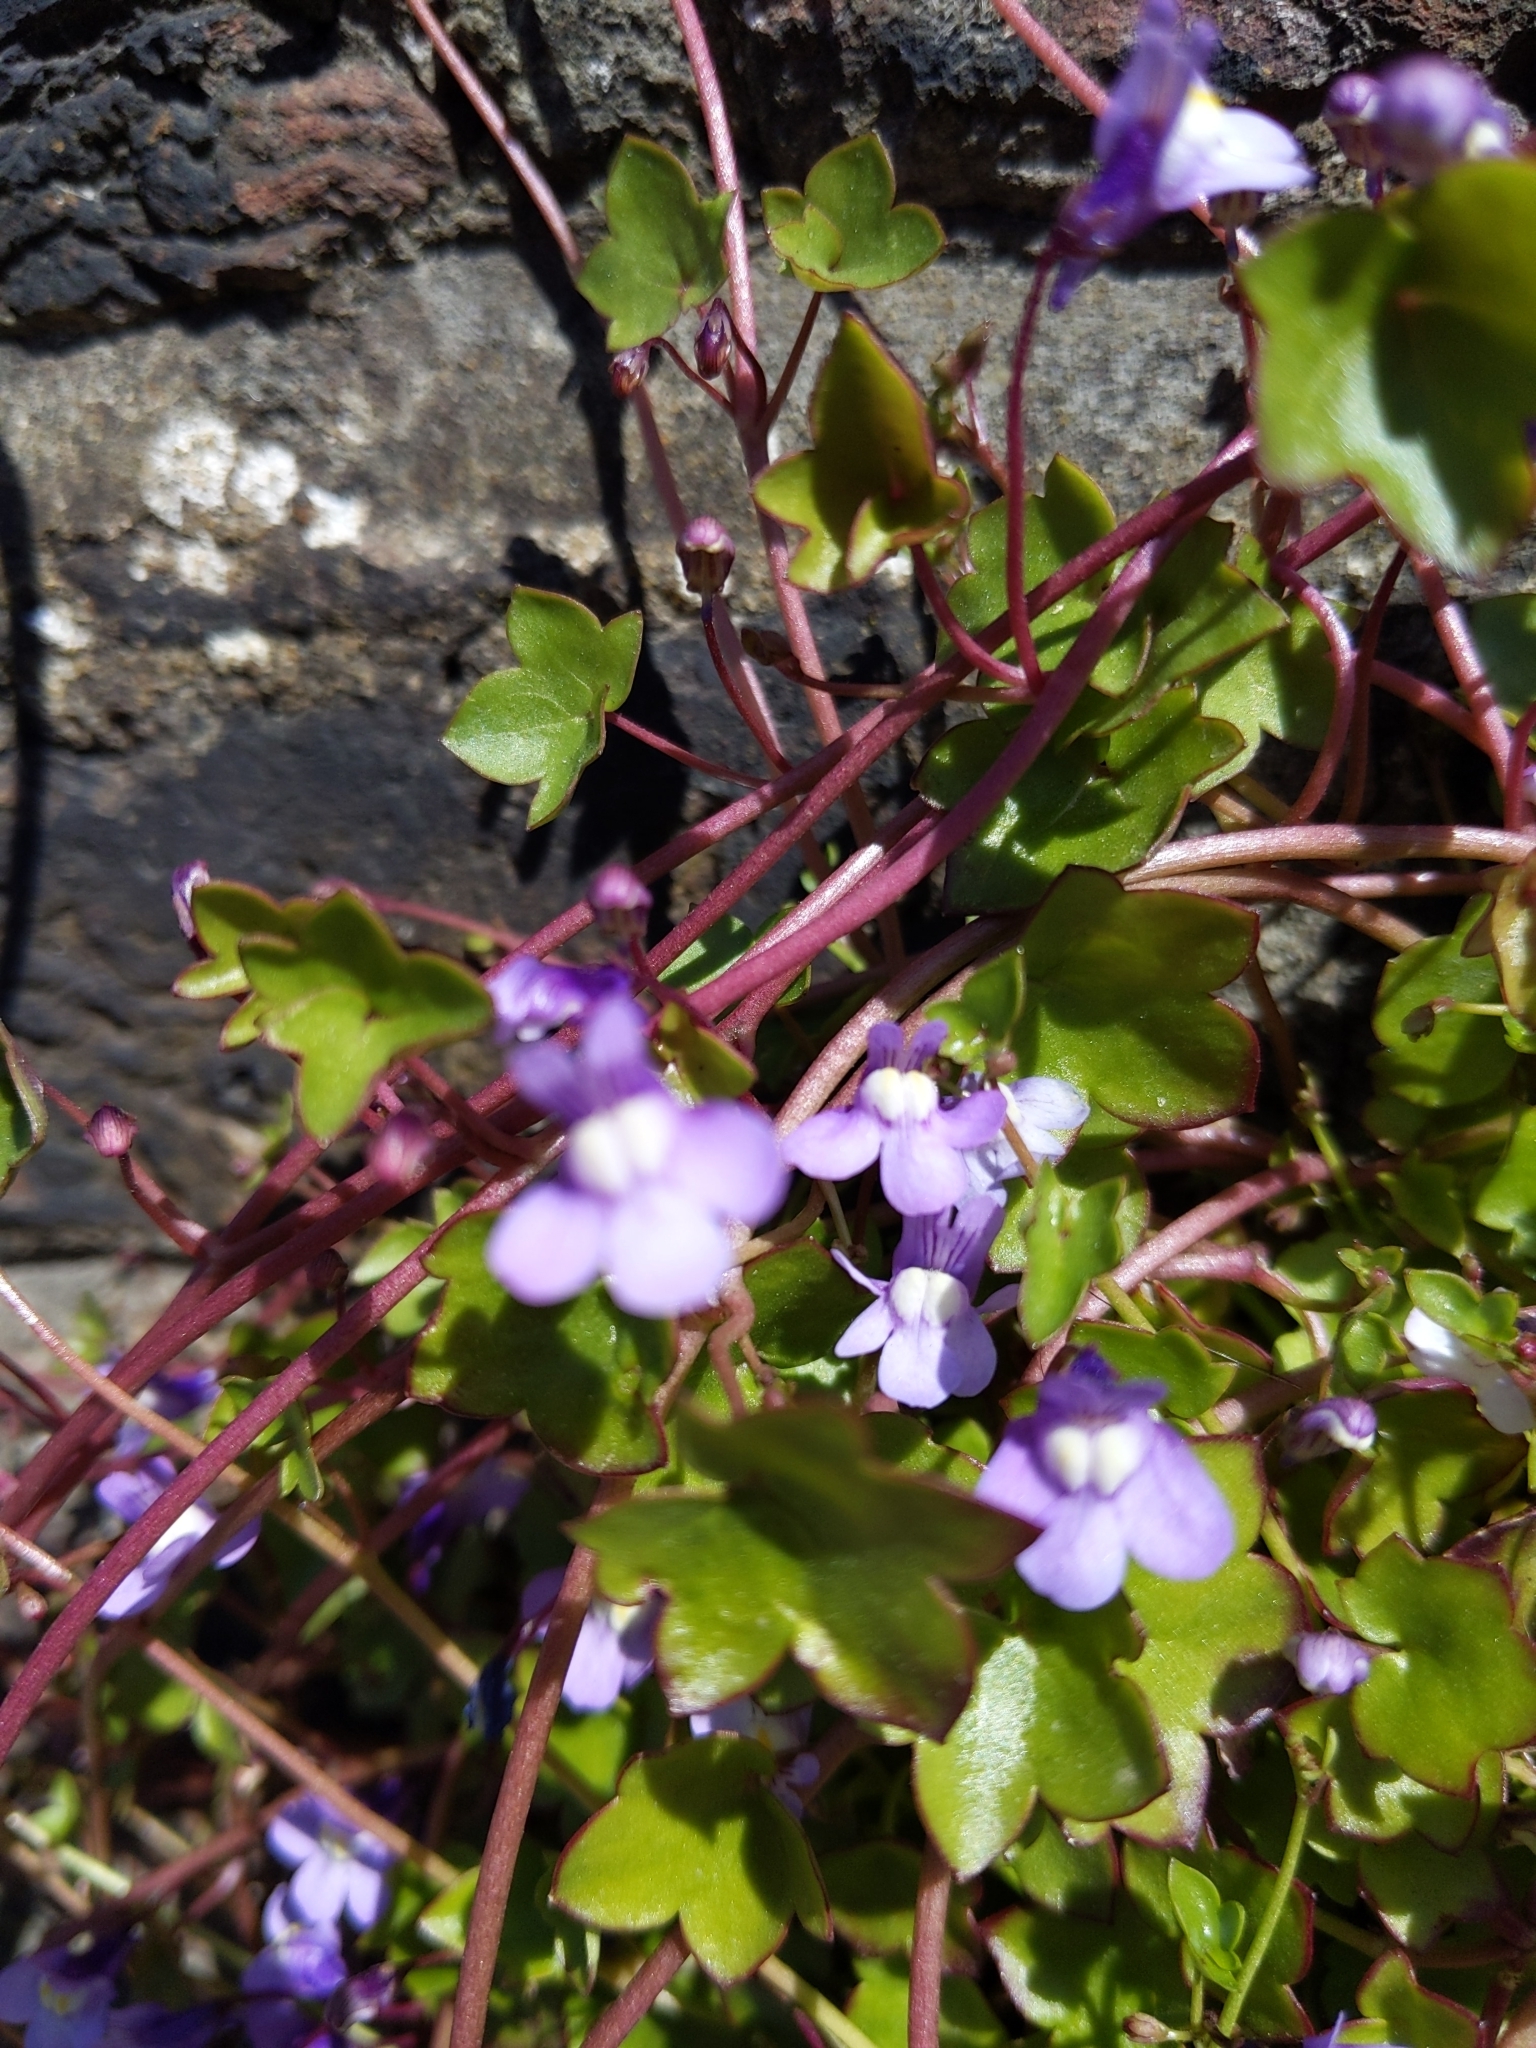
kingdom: Plantae
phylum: Tracheophyta
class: Magnoliopsida
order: Lamiales
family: Plantaginaceae
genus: Cymbalaria
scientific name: Cymbalaria muralis
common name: Ivy-leaved toadflax
